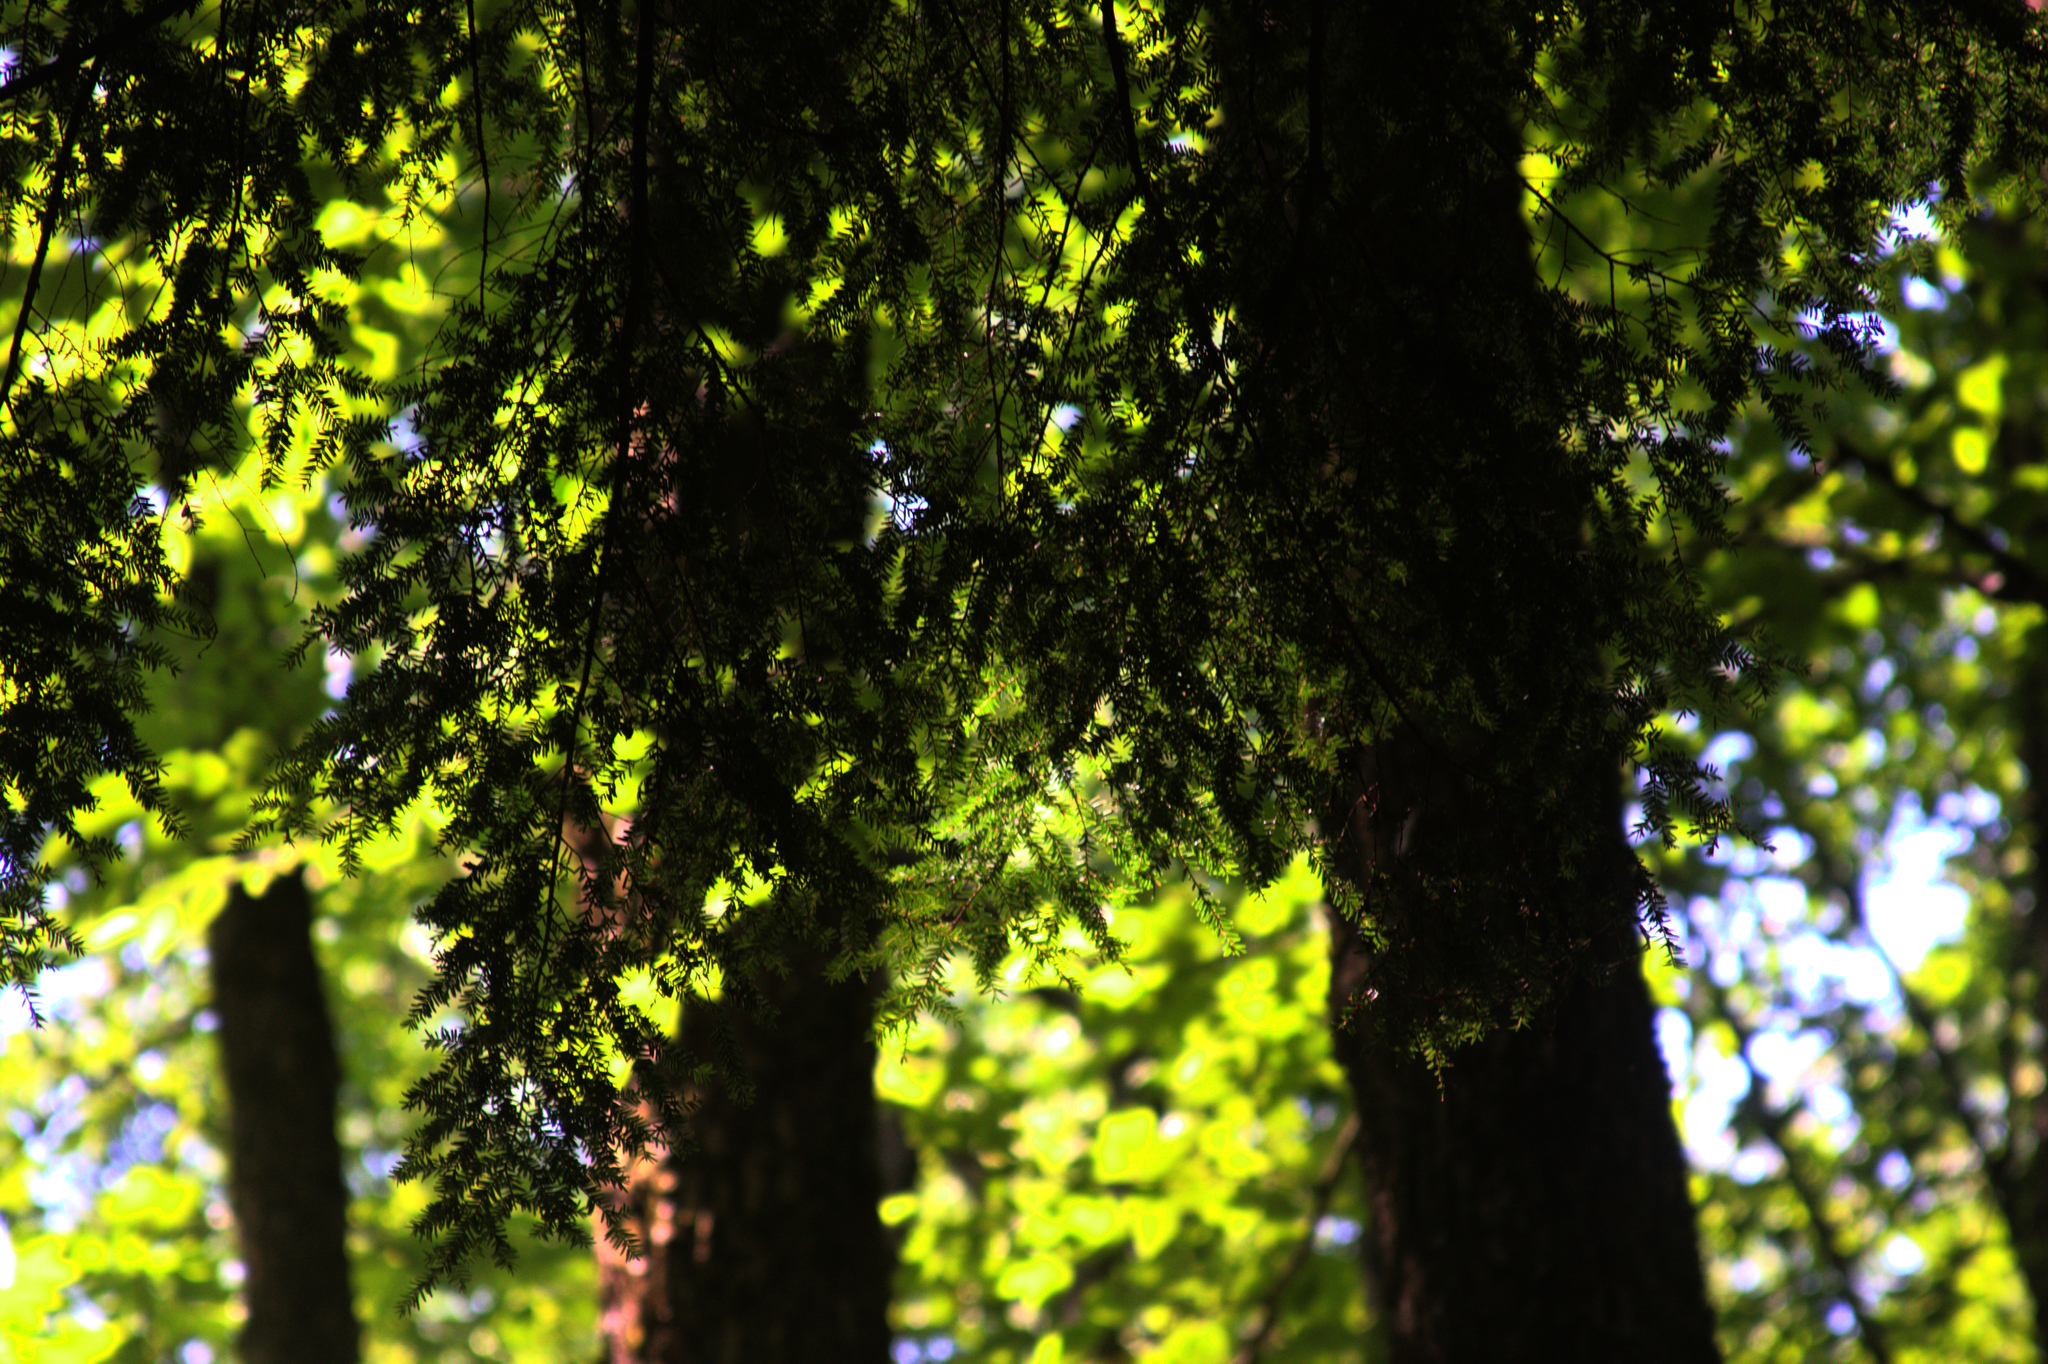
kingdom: Plantae
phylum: Tracheophyta
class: Pinopsida
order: Pinales
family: Pinaceae
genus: Tsuga
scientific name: Tsuga canadensis
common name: Eastern hemlock
